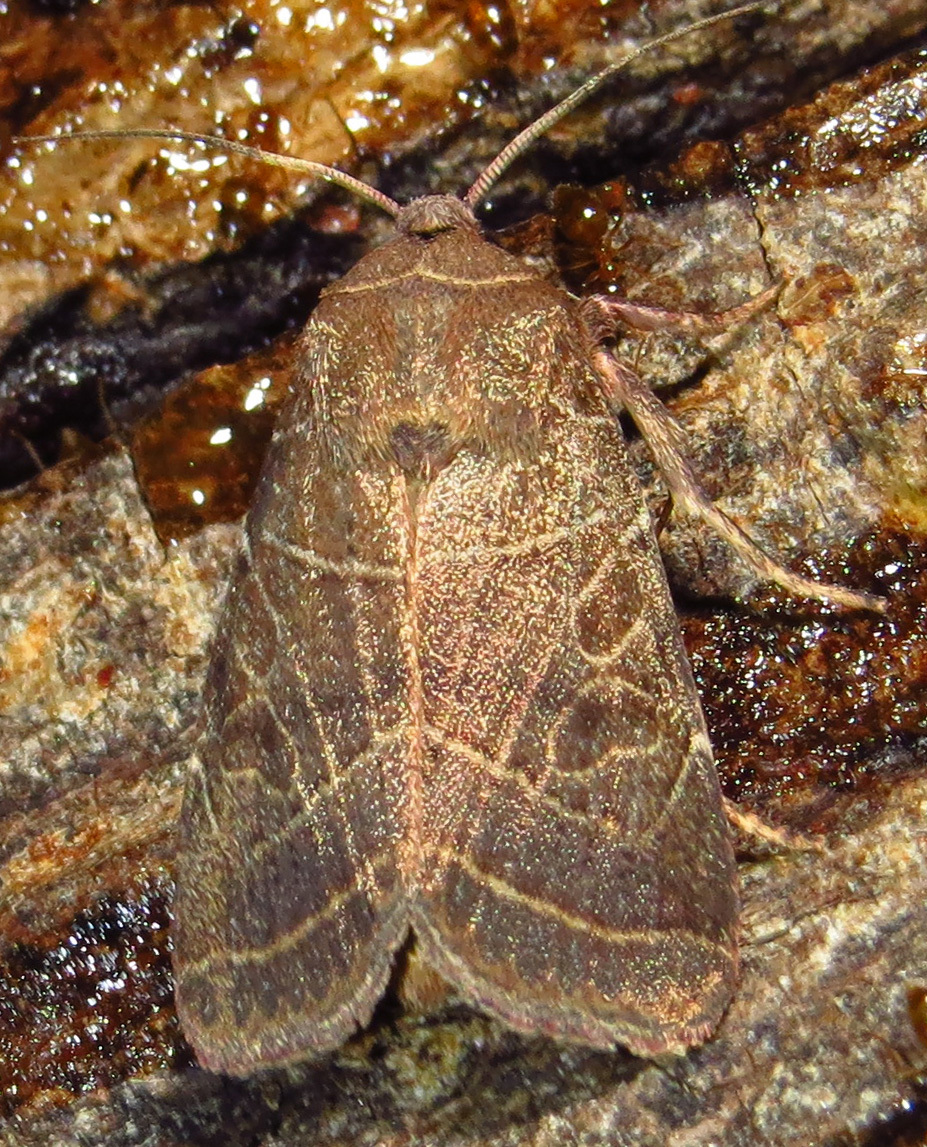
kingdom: Animalia
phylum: Arthropoda
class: Insecta
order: Lepidoptera
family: Noctuidae
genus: Orthodes
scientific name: Orthodes majuscula
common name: Rustic quaker
